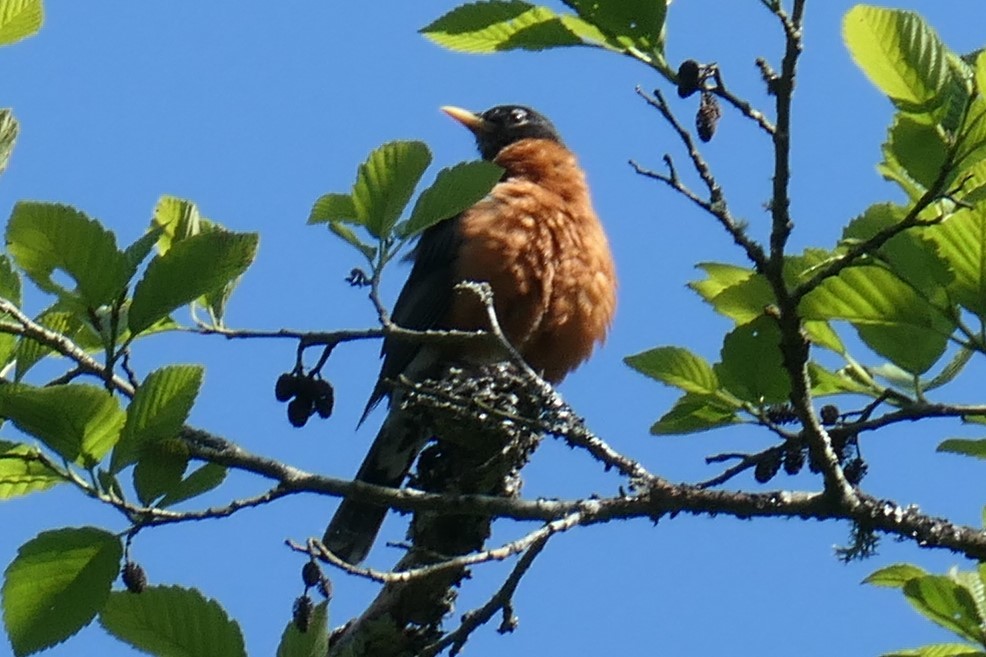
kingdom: Animalia
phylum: Chordata
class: Aves
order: Passeriformes
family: Turdidae
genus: Turdus
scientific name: Turdus migratorius
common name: American robin
